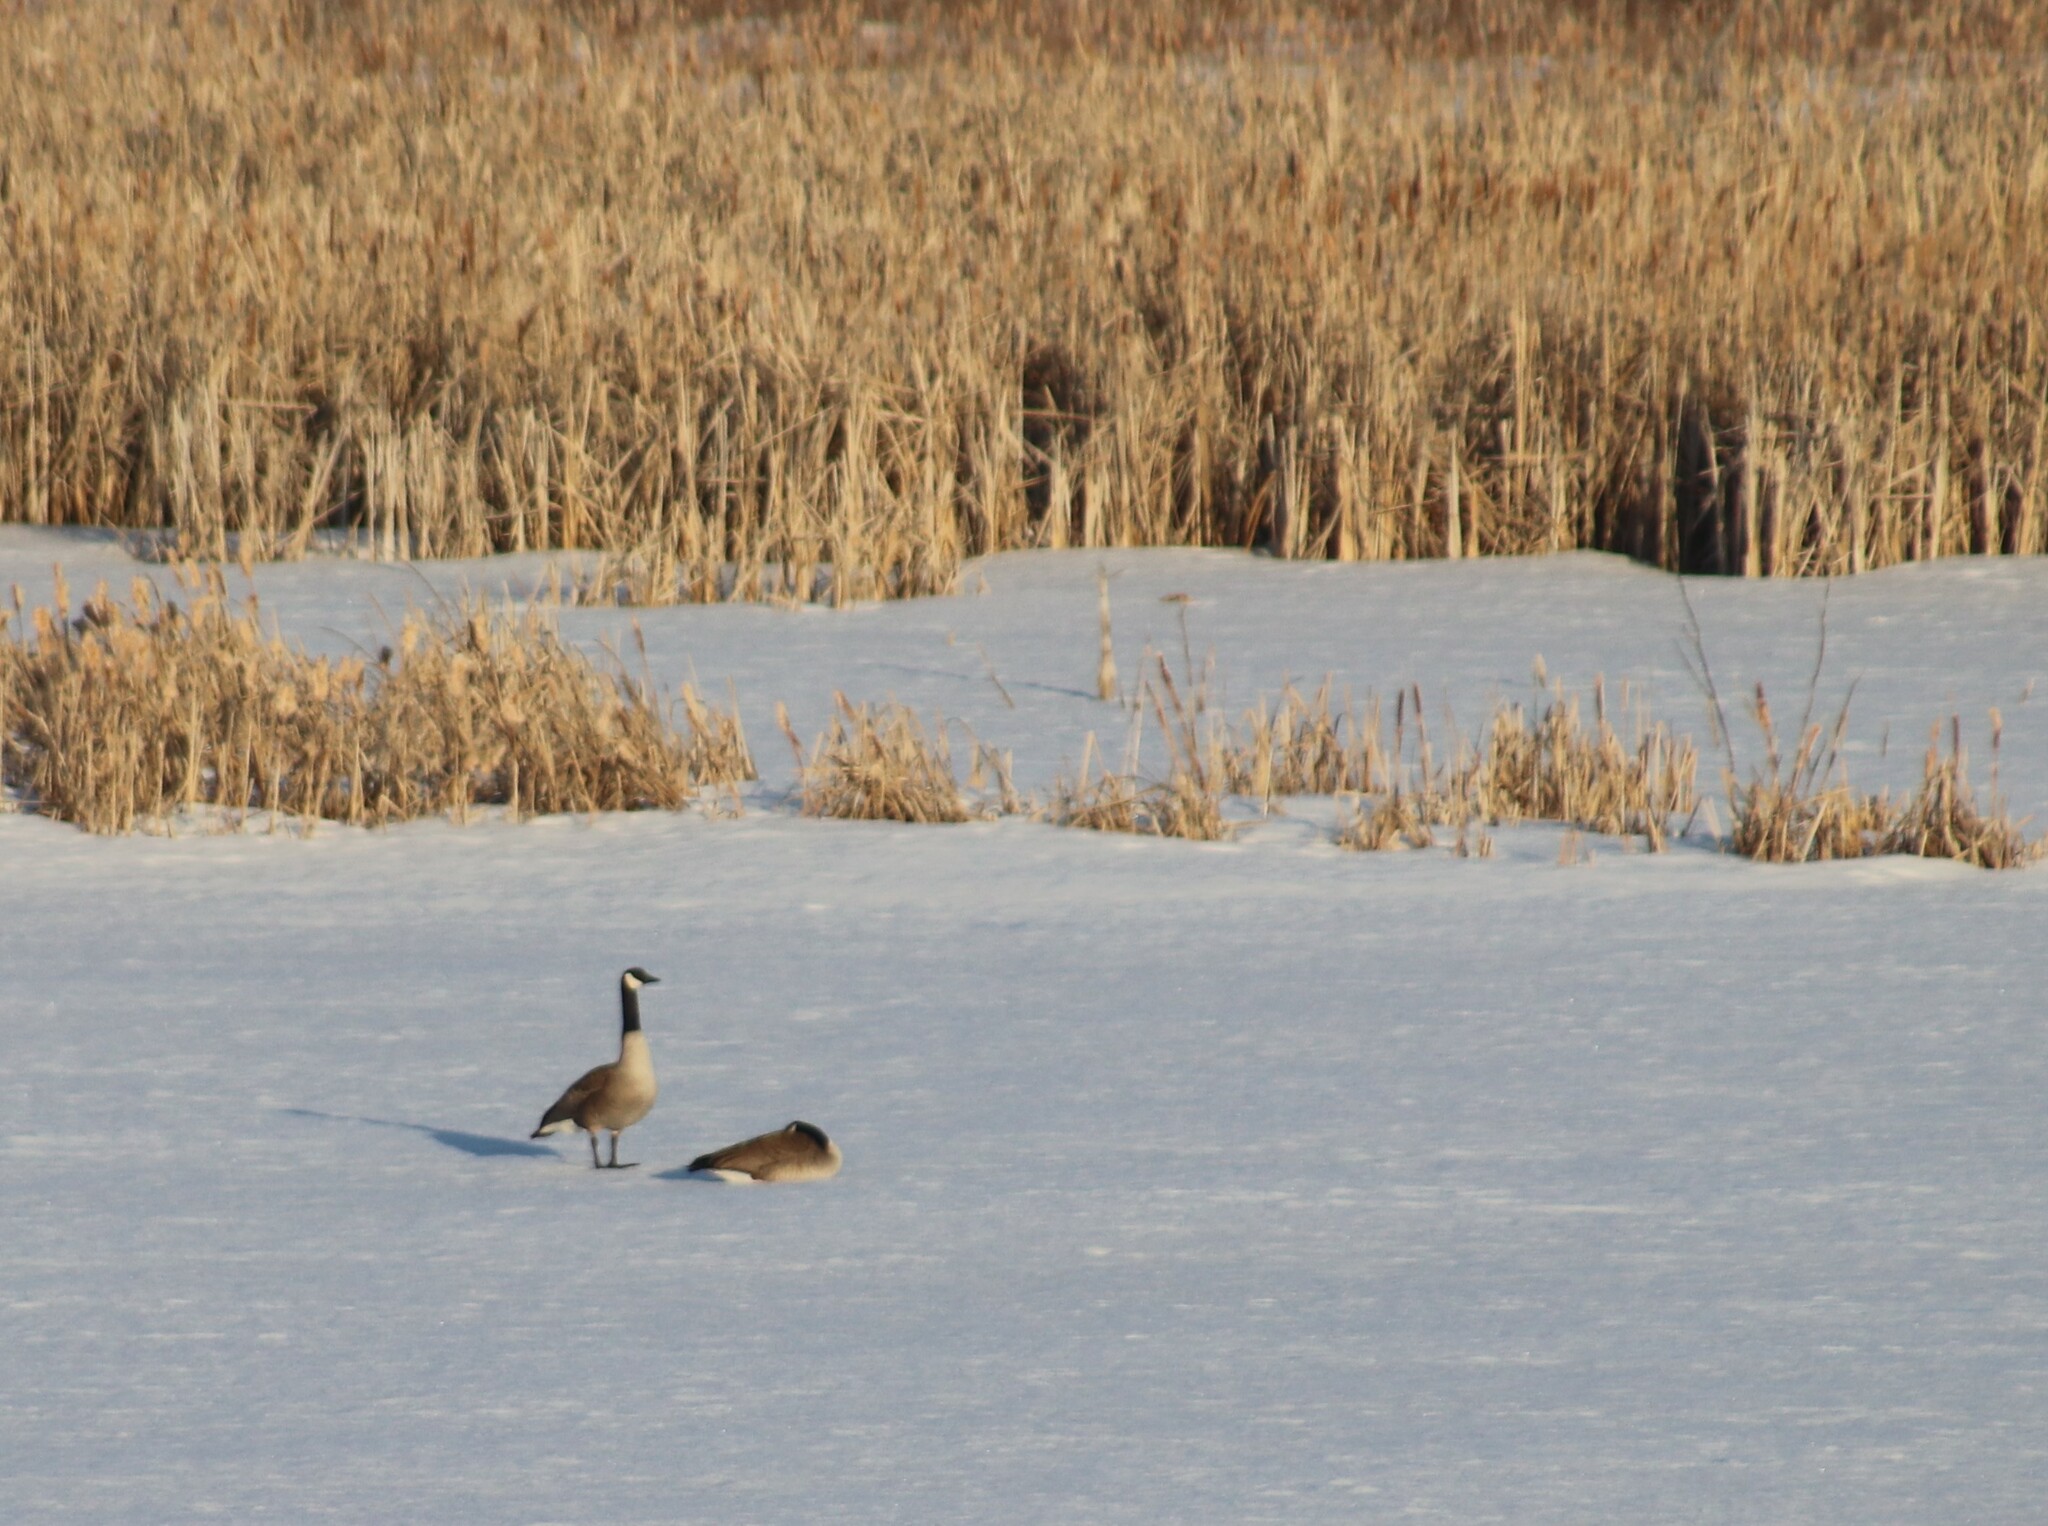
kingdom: Animalia
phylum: Chordata
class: Aves
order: Anseriformes
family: Anatidae
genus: Branta
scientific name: Branta canadensis
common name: Canada goose
